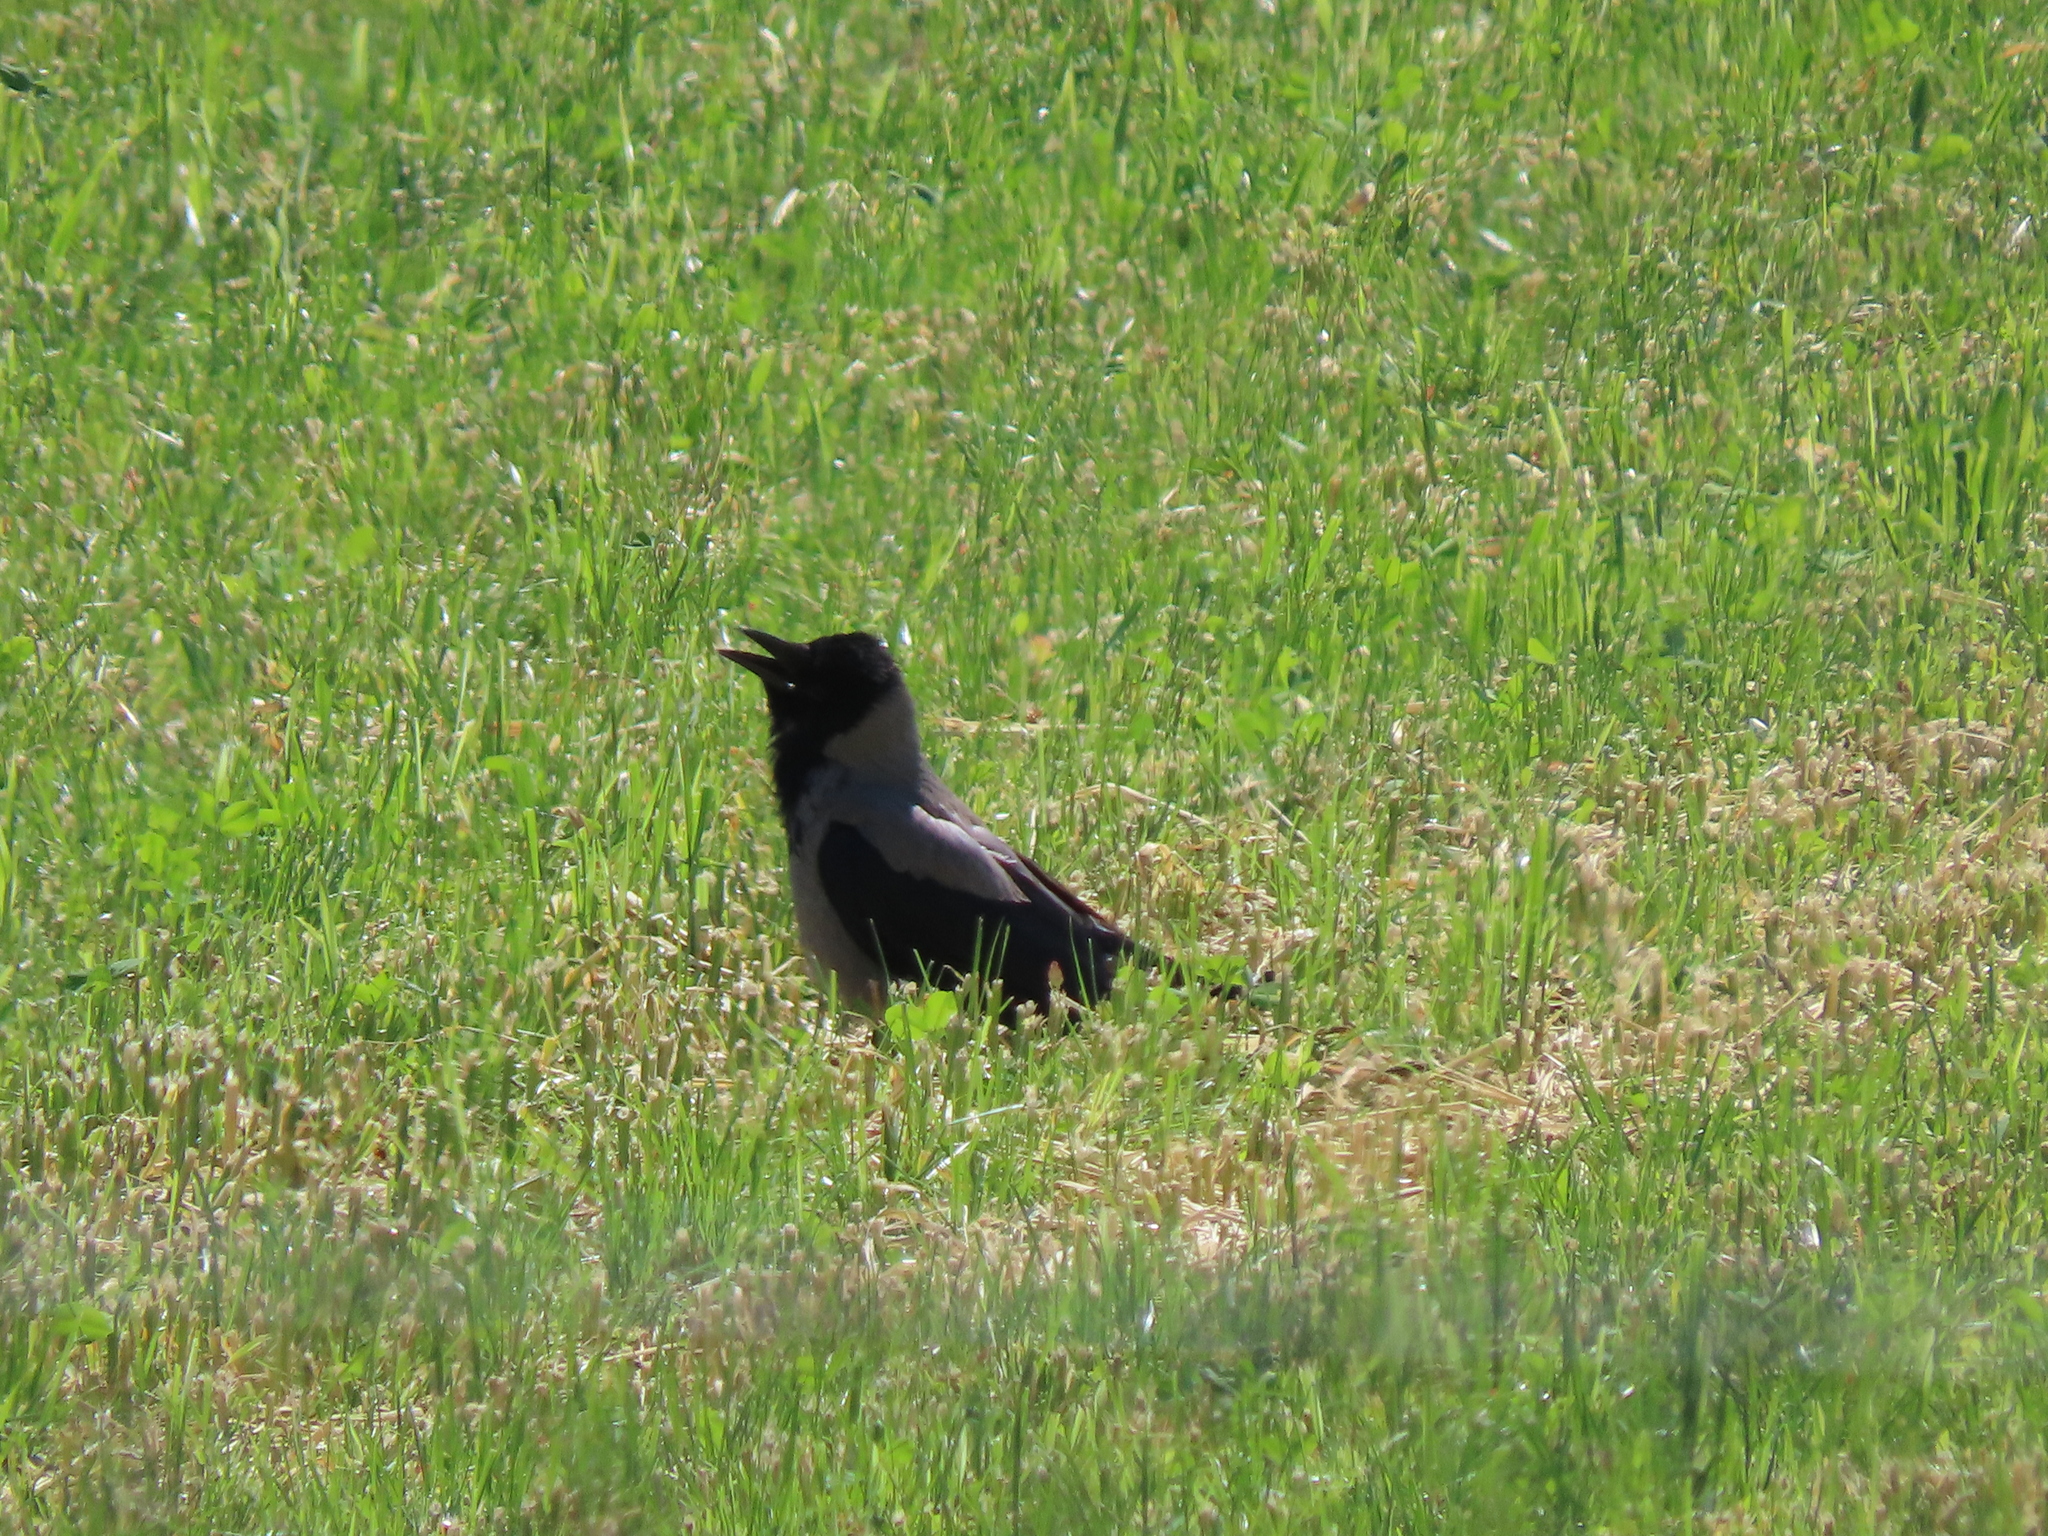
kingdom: Animalia
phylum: Chordata
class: Aves
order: Passeriformes
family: Corvidae
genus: Corvus
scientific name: Corvus cornix
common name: Hooded crow
